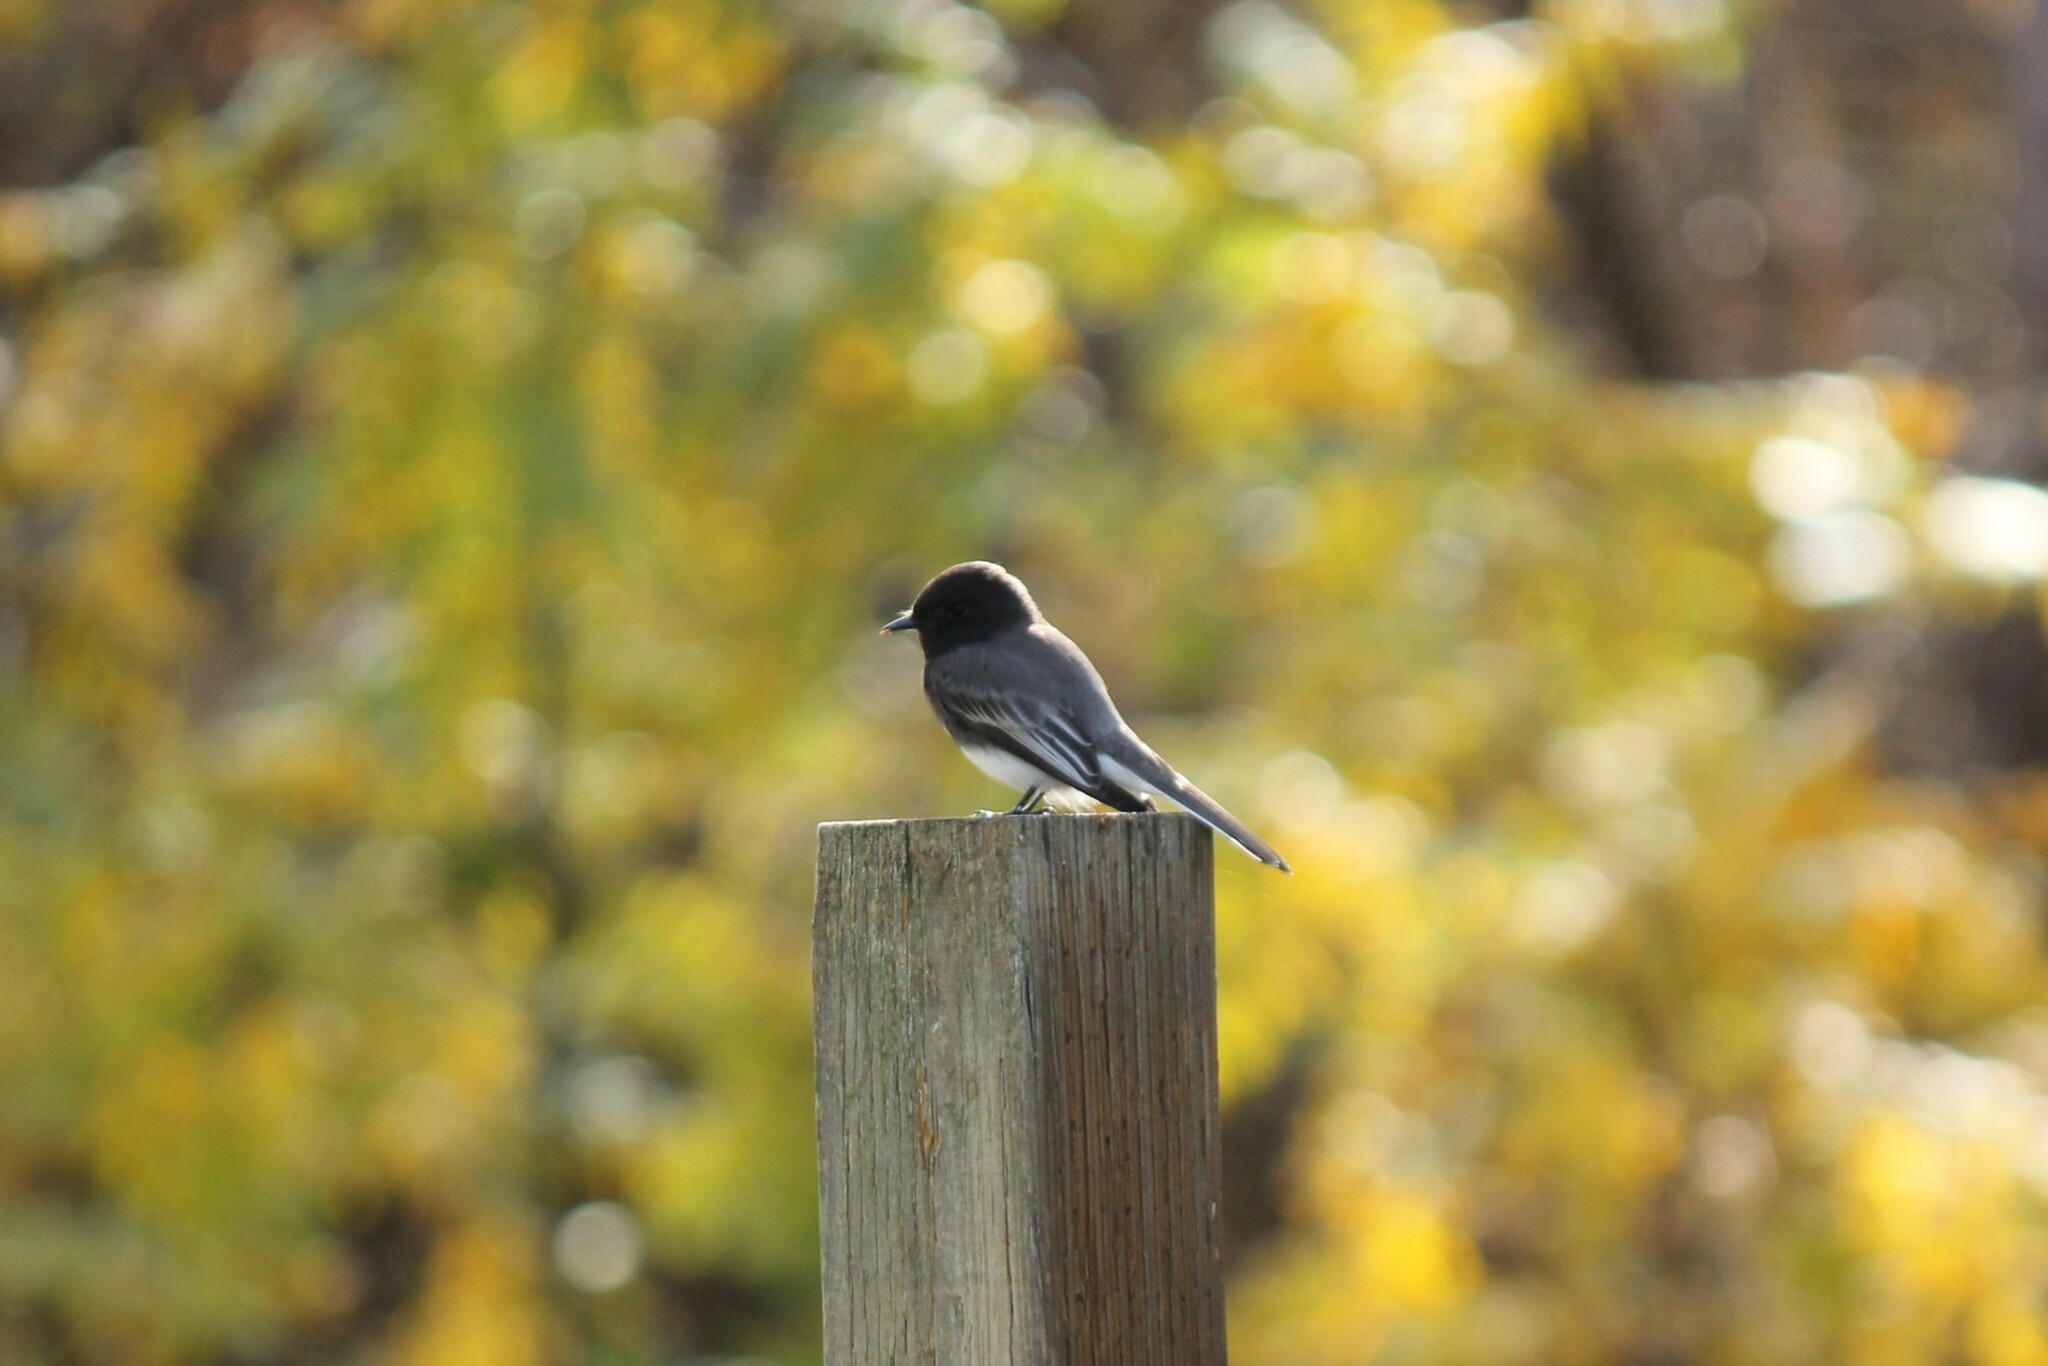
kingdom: Animalia
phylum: Chordata
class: Aves
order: Passeriformes
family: Tyrannidae
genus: Sayornis
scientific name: Sayornis nigricans
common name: Black phoebe
